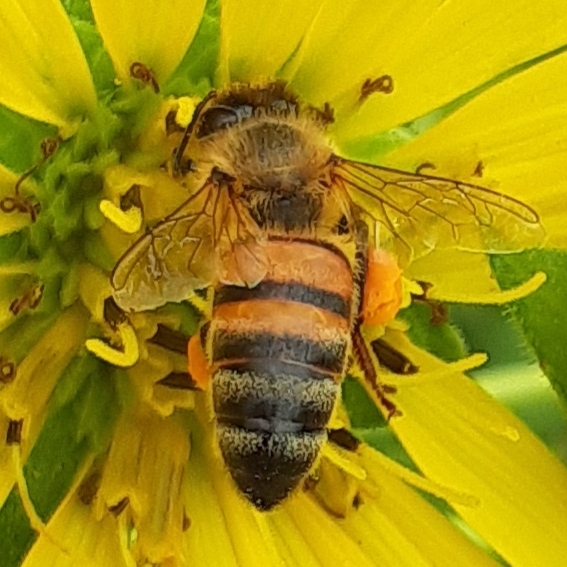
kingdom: Animalia
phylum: Arthropoda
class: Insecta
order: Hymenoptera
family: Apidae
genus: Apis
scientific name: Apis mellifera
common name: Honey bee
